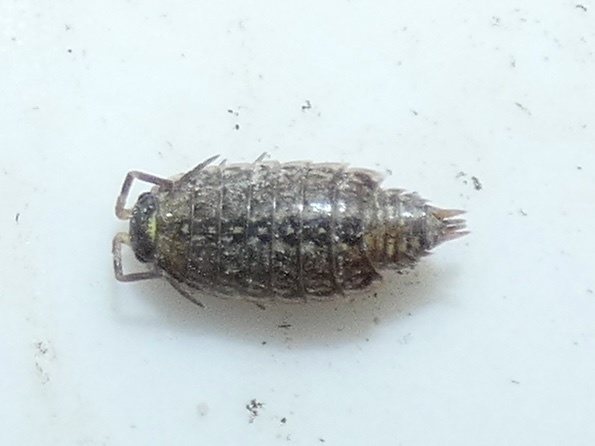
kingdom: Animalia
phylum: Arthropoda
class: Malacostraca
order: Isopoda
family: Philosciidae
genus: Philoscia
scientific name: Philoscia muscorum
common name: Common striped woodlouse
